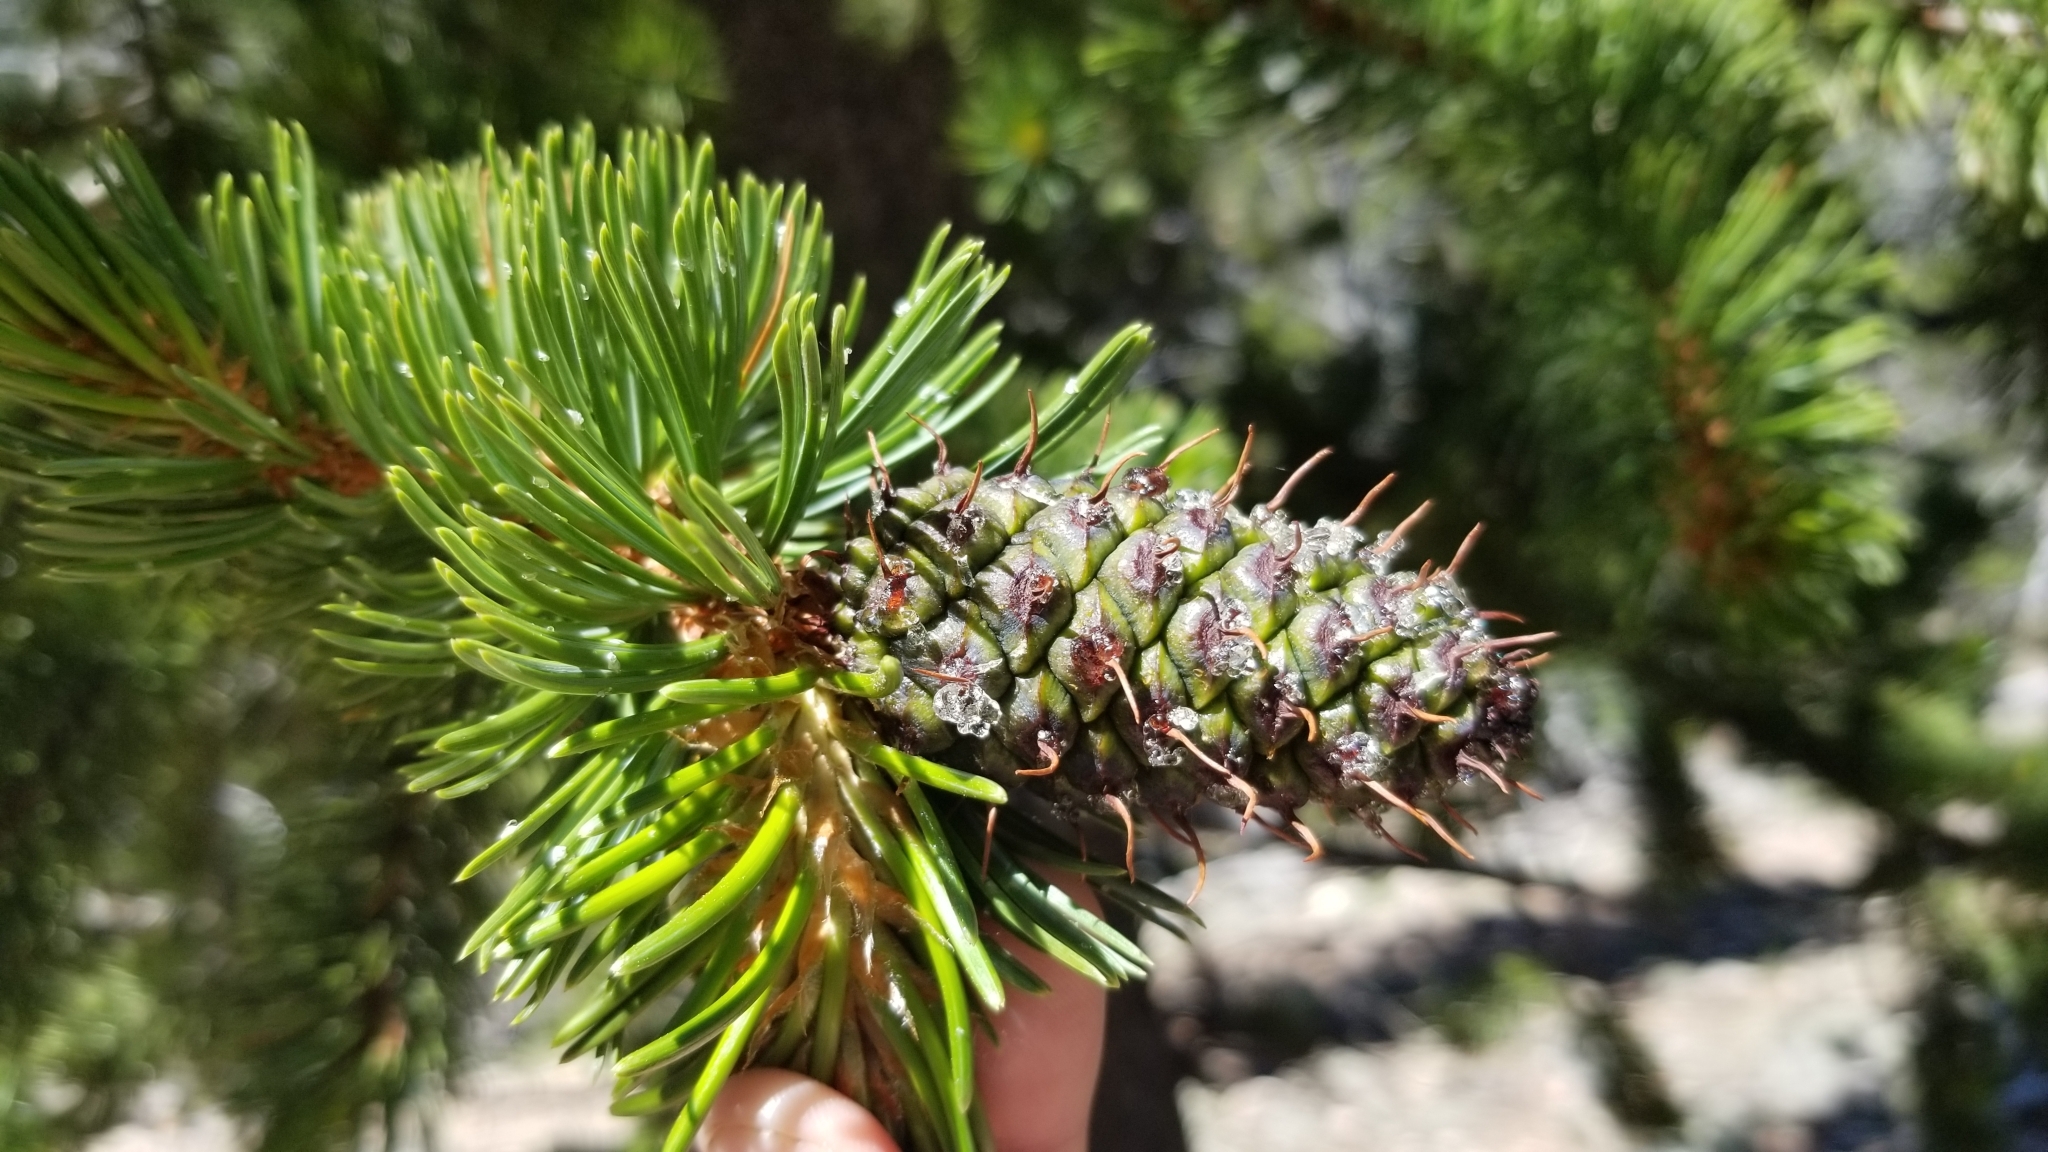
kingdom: Plantae
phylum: Tracheophyta
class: Pinopsida
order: Pinales
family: Pinaceae
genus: Pinus
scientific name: Pinus aristata
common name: Colorado bristlecone pine
